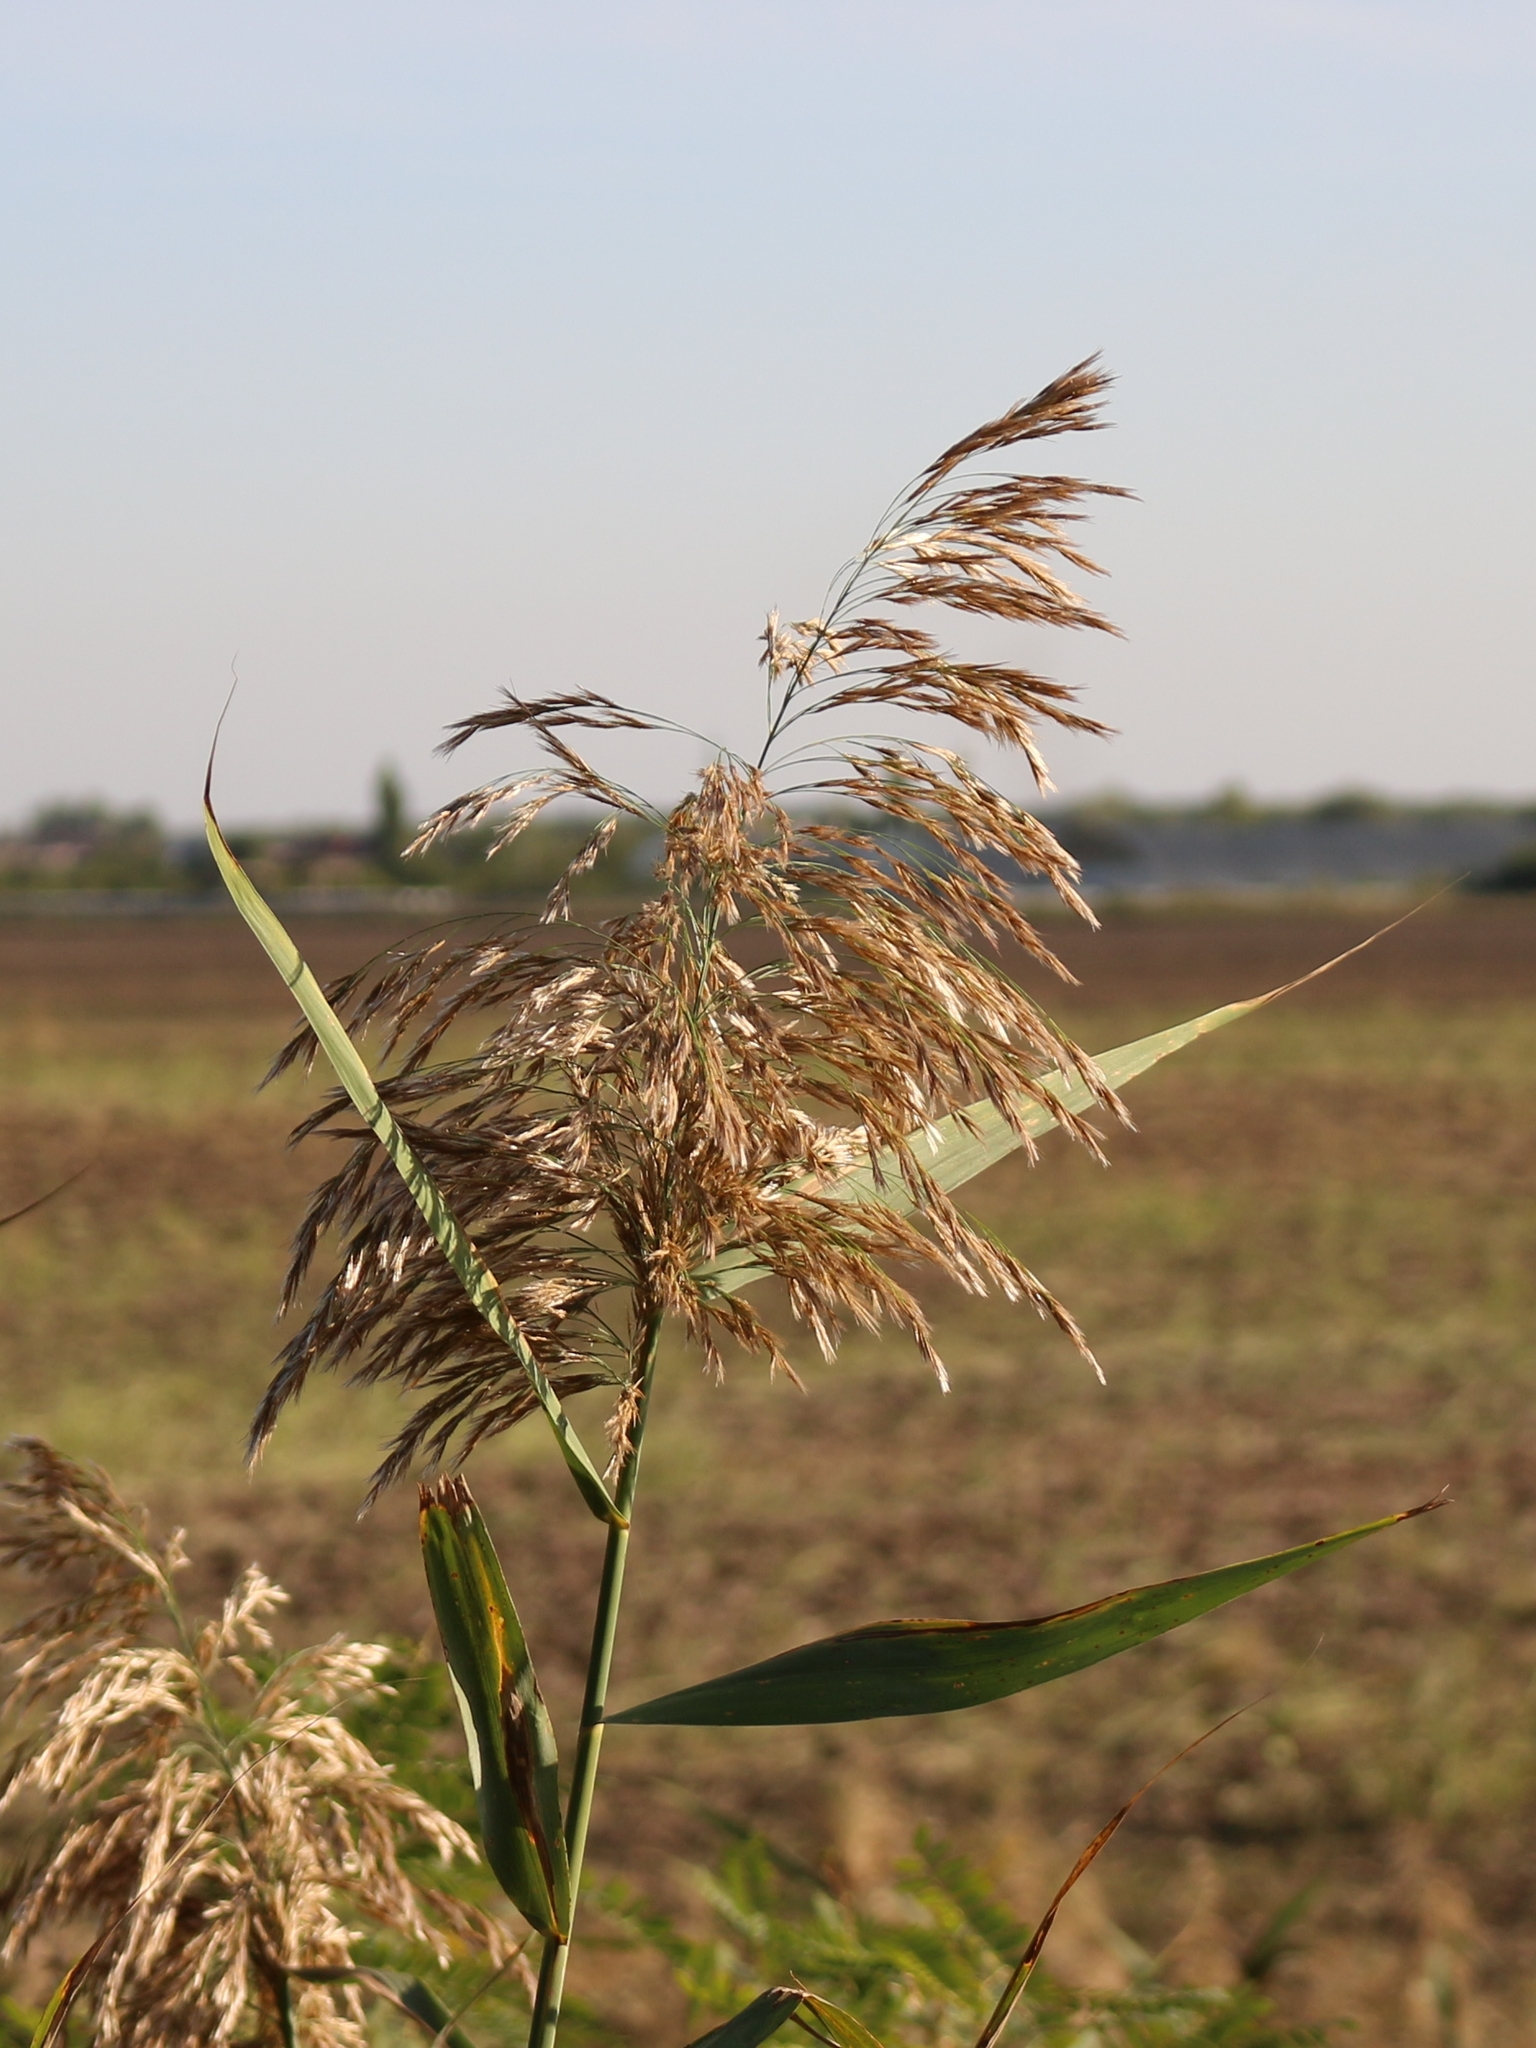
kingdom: Plantae
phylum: Tracheophyta
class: Liliopsida
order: Poales
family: Poaceae
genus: Phragmites
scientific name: Phragmites australis
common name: Common reed
